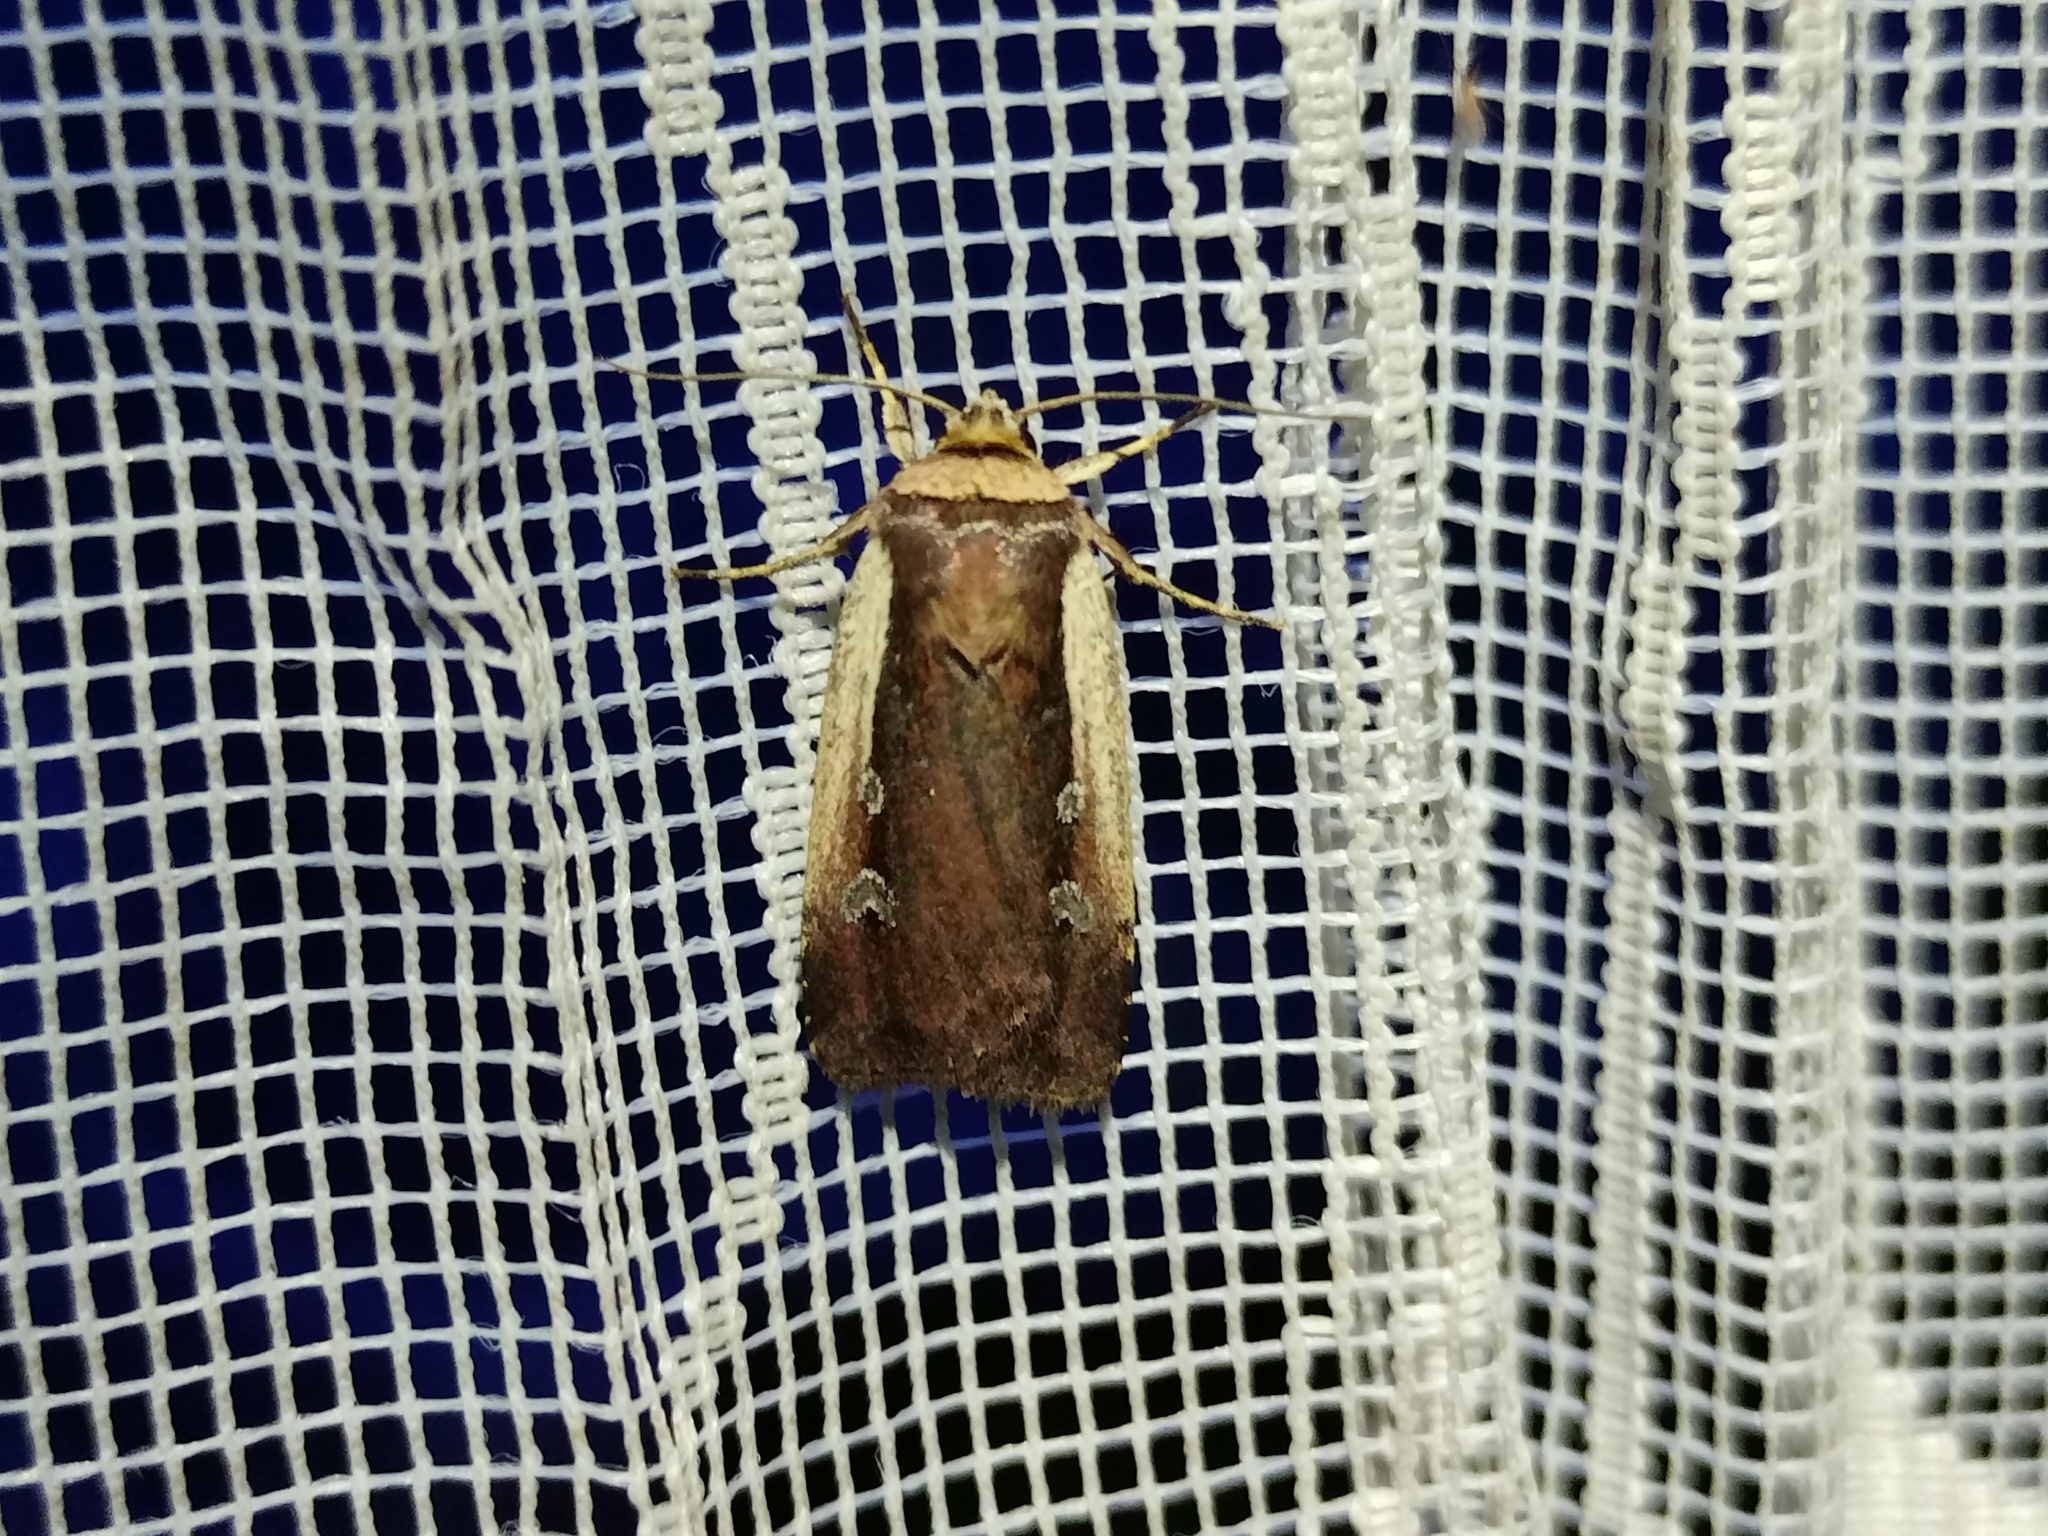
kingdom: Animalia
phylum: Arthropoda
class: Insecta
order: Lepidoptera
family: Noctuidae
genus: Ochropleura
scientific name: Ochropleura plecta
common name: Flame shoulder
